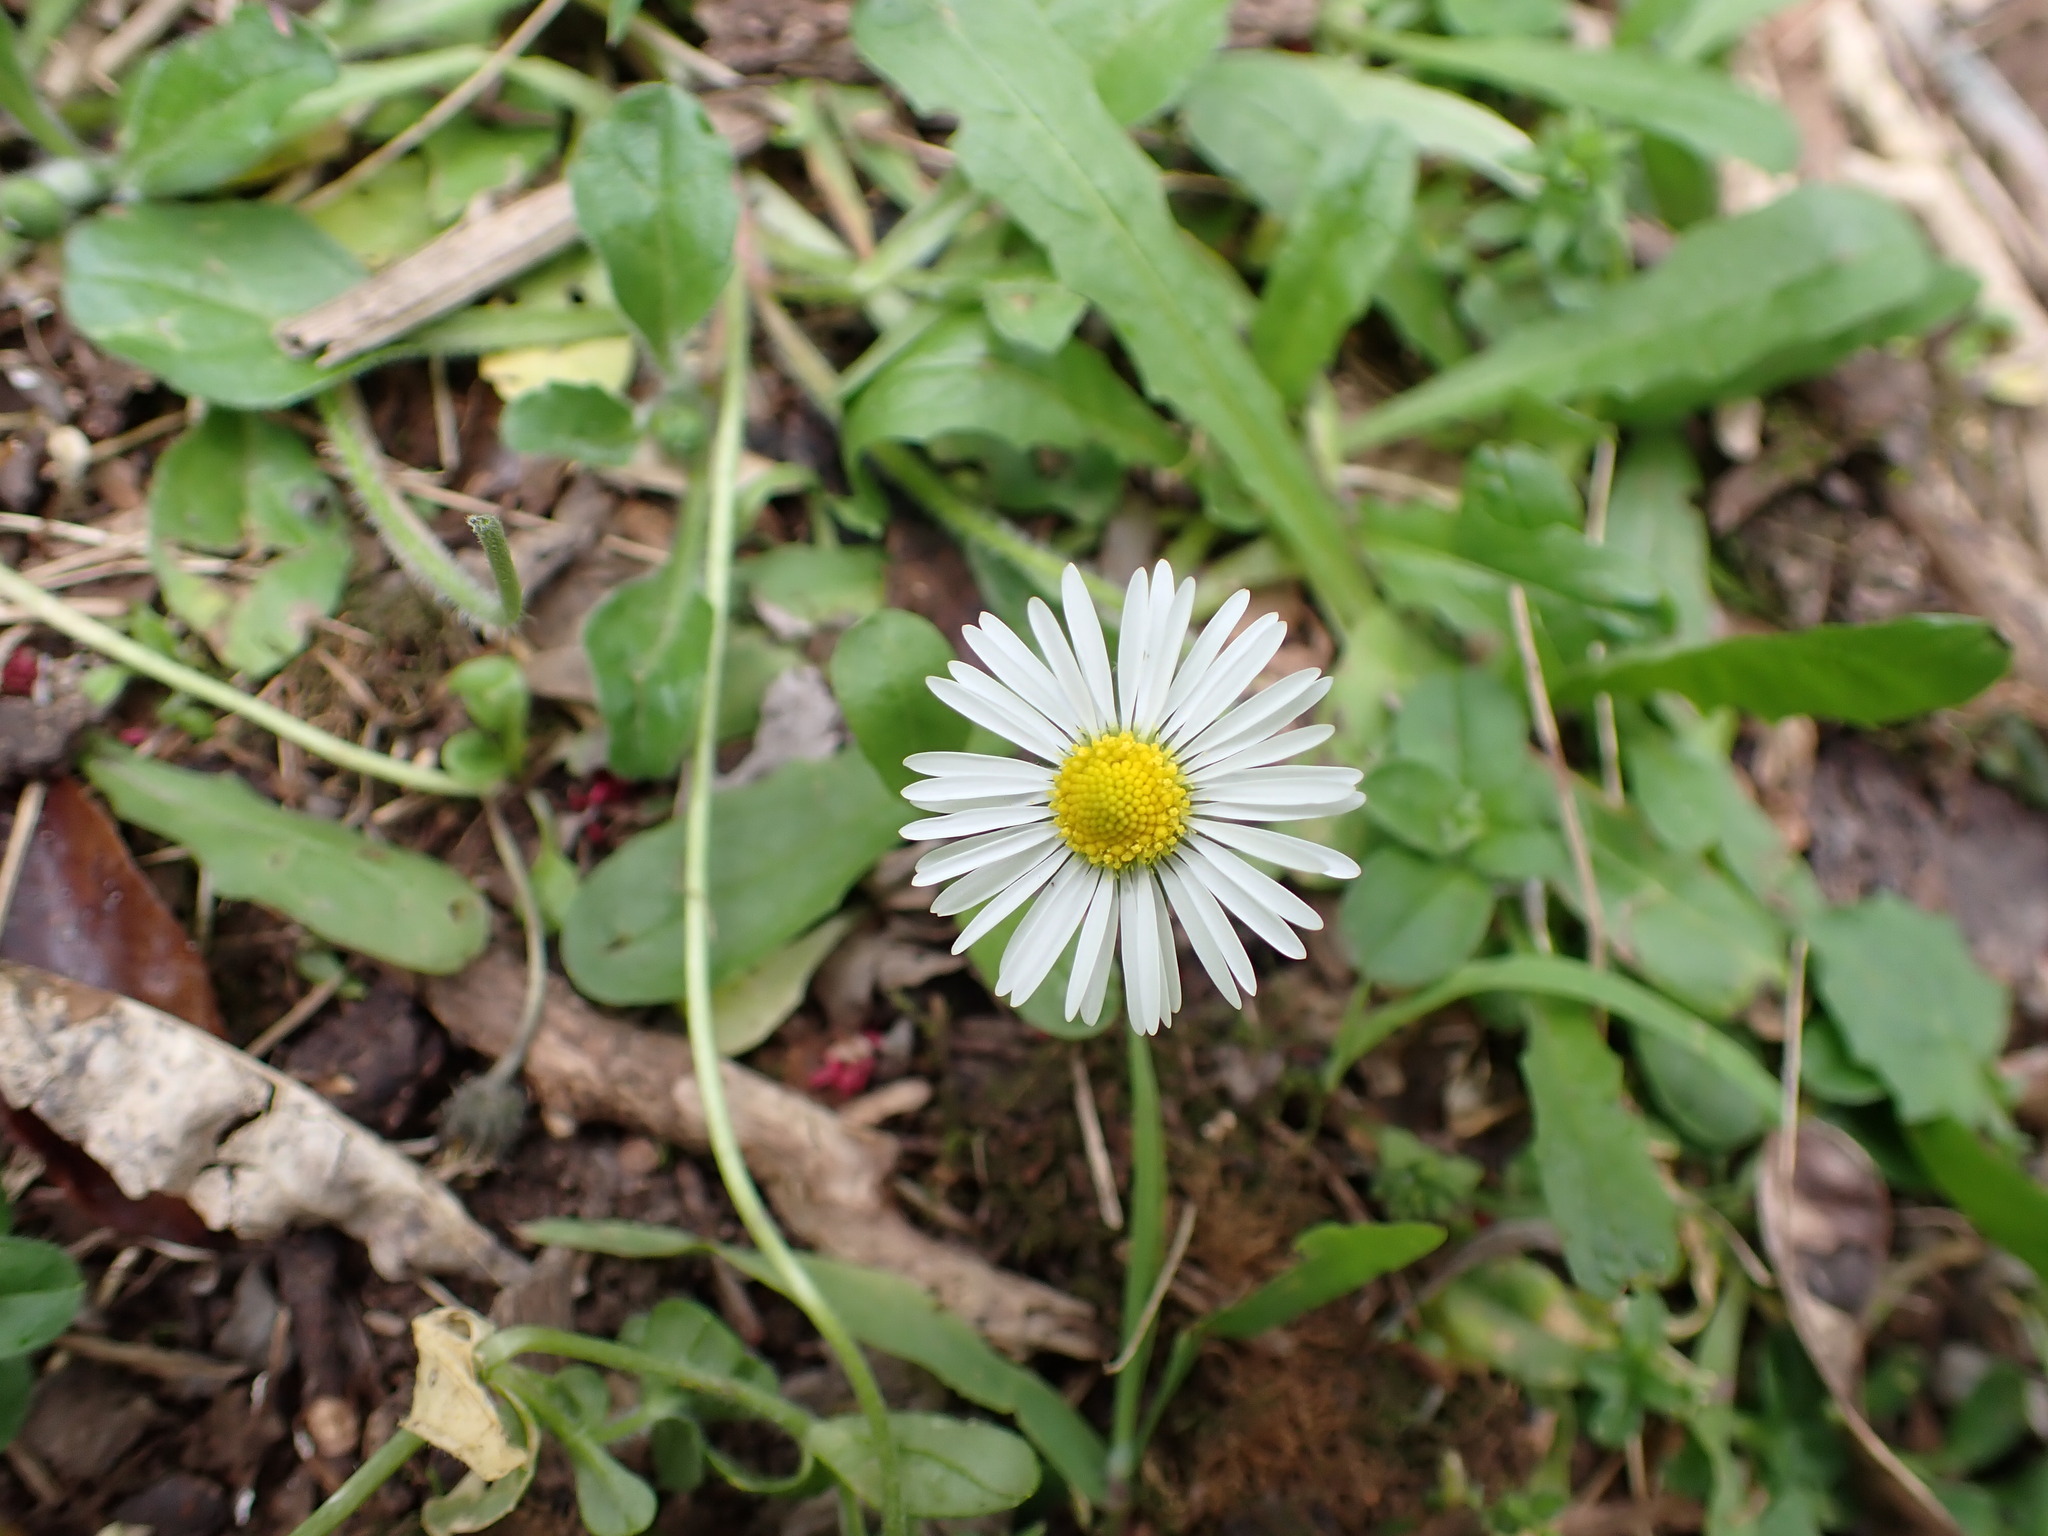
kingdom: Plantae
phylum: Tracheophyta
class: Magnoliopsida
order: Asterales
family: Asteraceae
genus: Bellis
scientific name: Bellis perennis
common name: Lawndaisy
